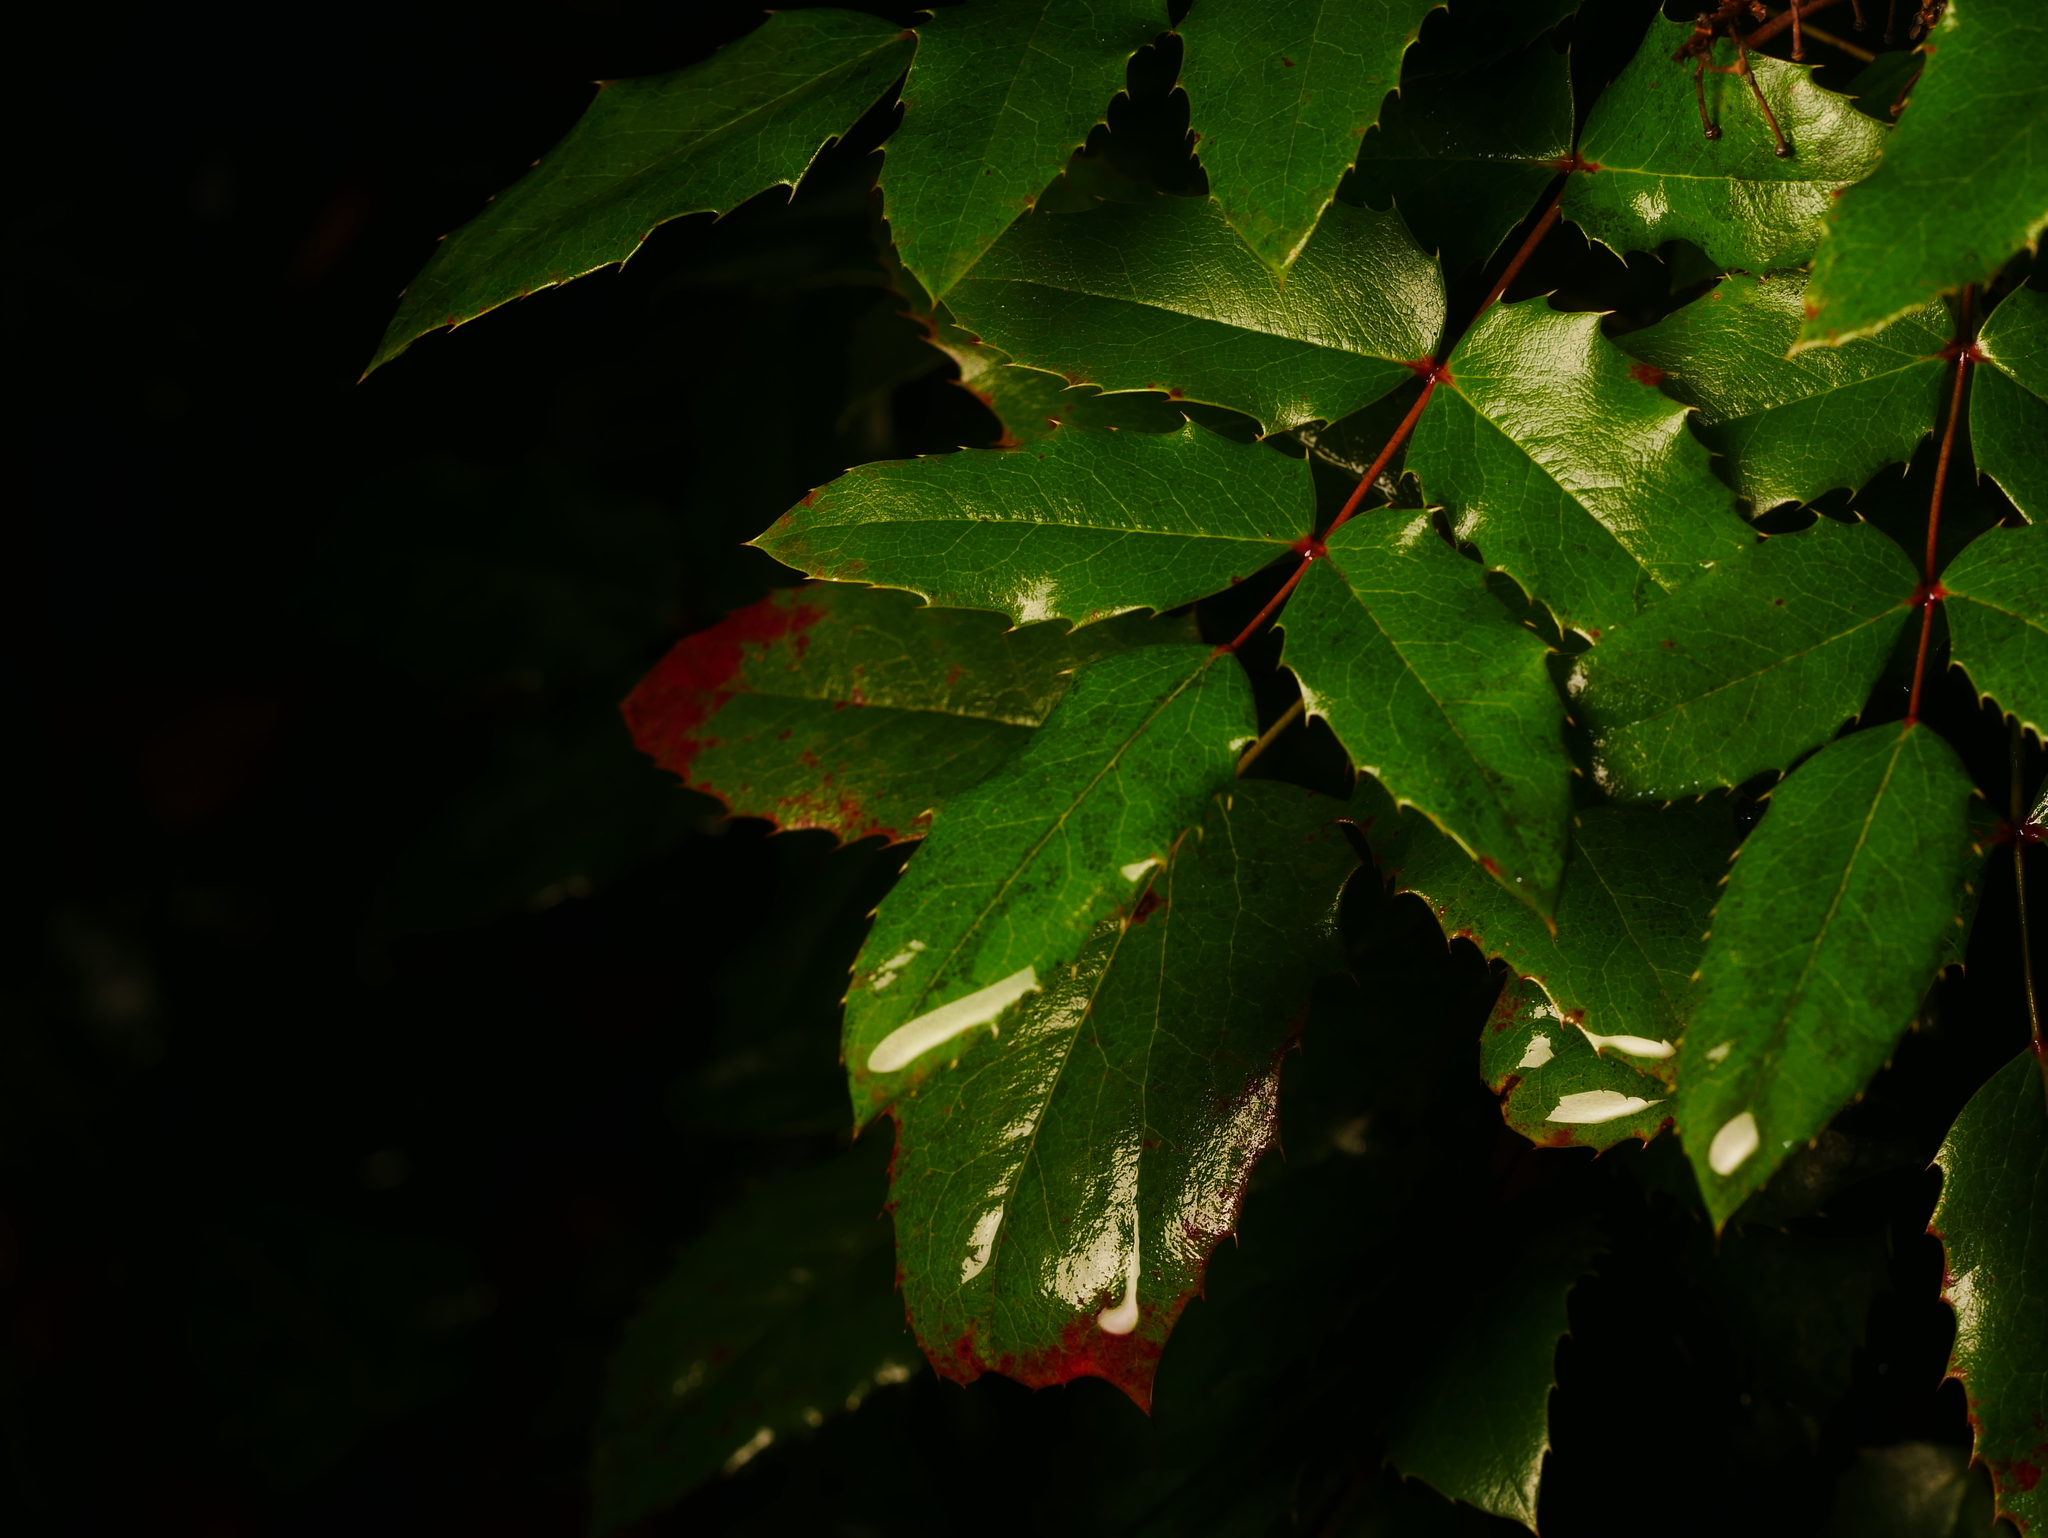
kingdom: Plantae
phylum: Tracheophyta
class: Magnoliopsida
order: Ranunculales
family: Berberidaceae
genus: Mahonia
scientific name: Mahonia aquifolium
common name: Oregon-grape
